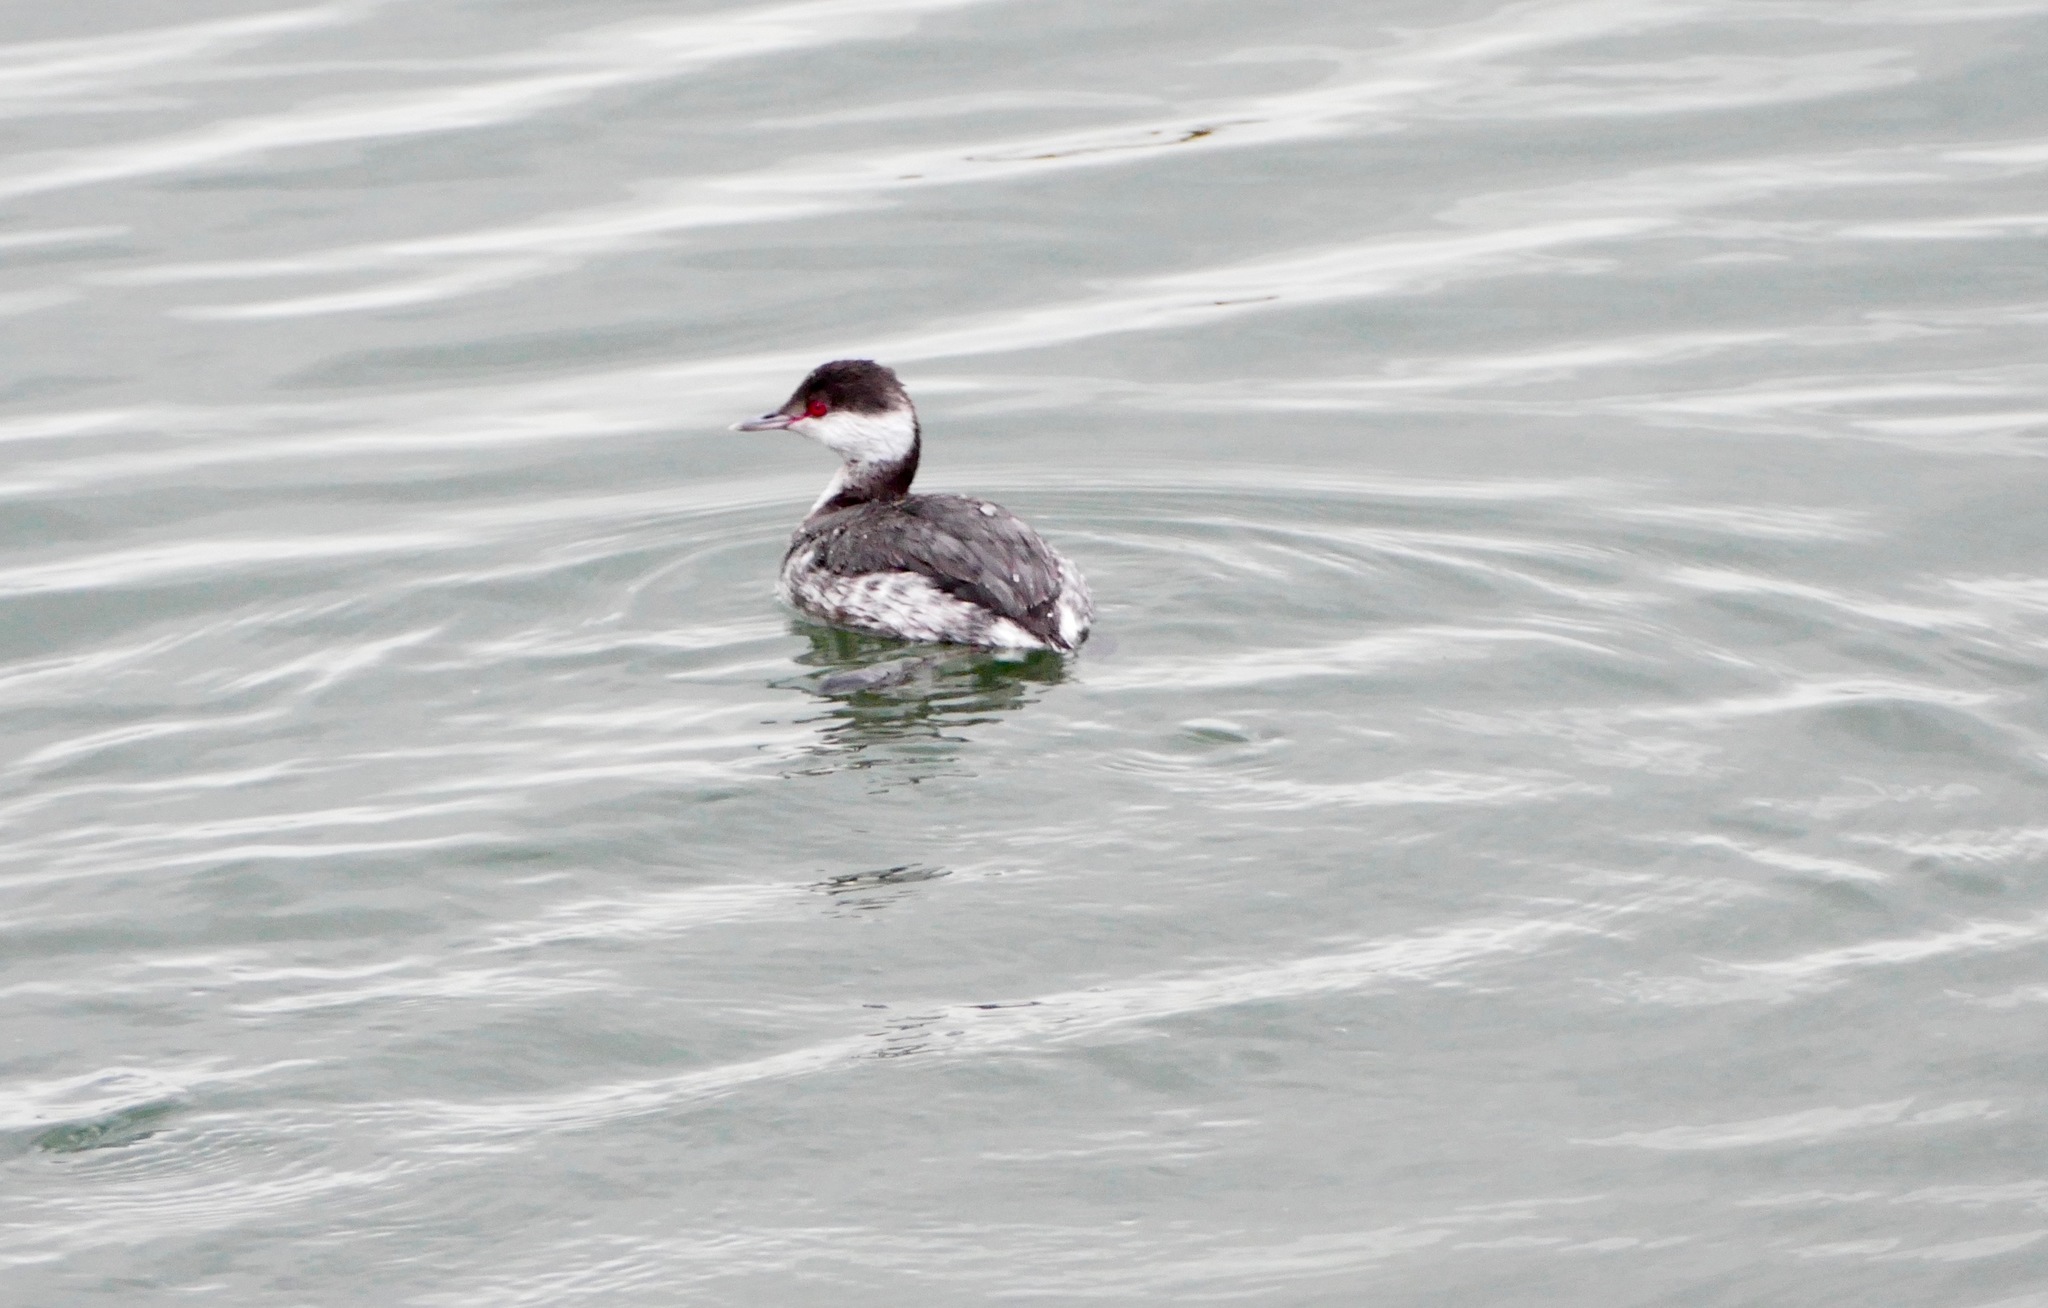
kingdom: Animalia
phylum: Chordata
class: Aves
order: Podicipediformes
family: Podicipedidae
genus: Podiceps
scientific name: Podiceps auritus
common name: Horned grebe
